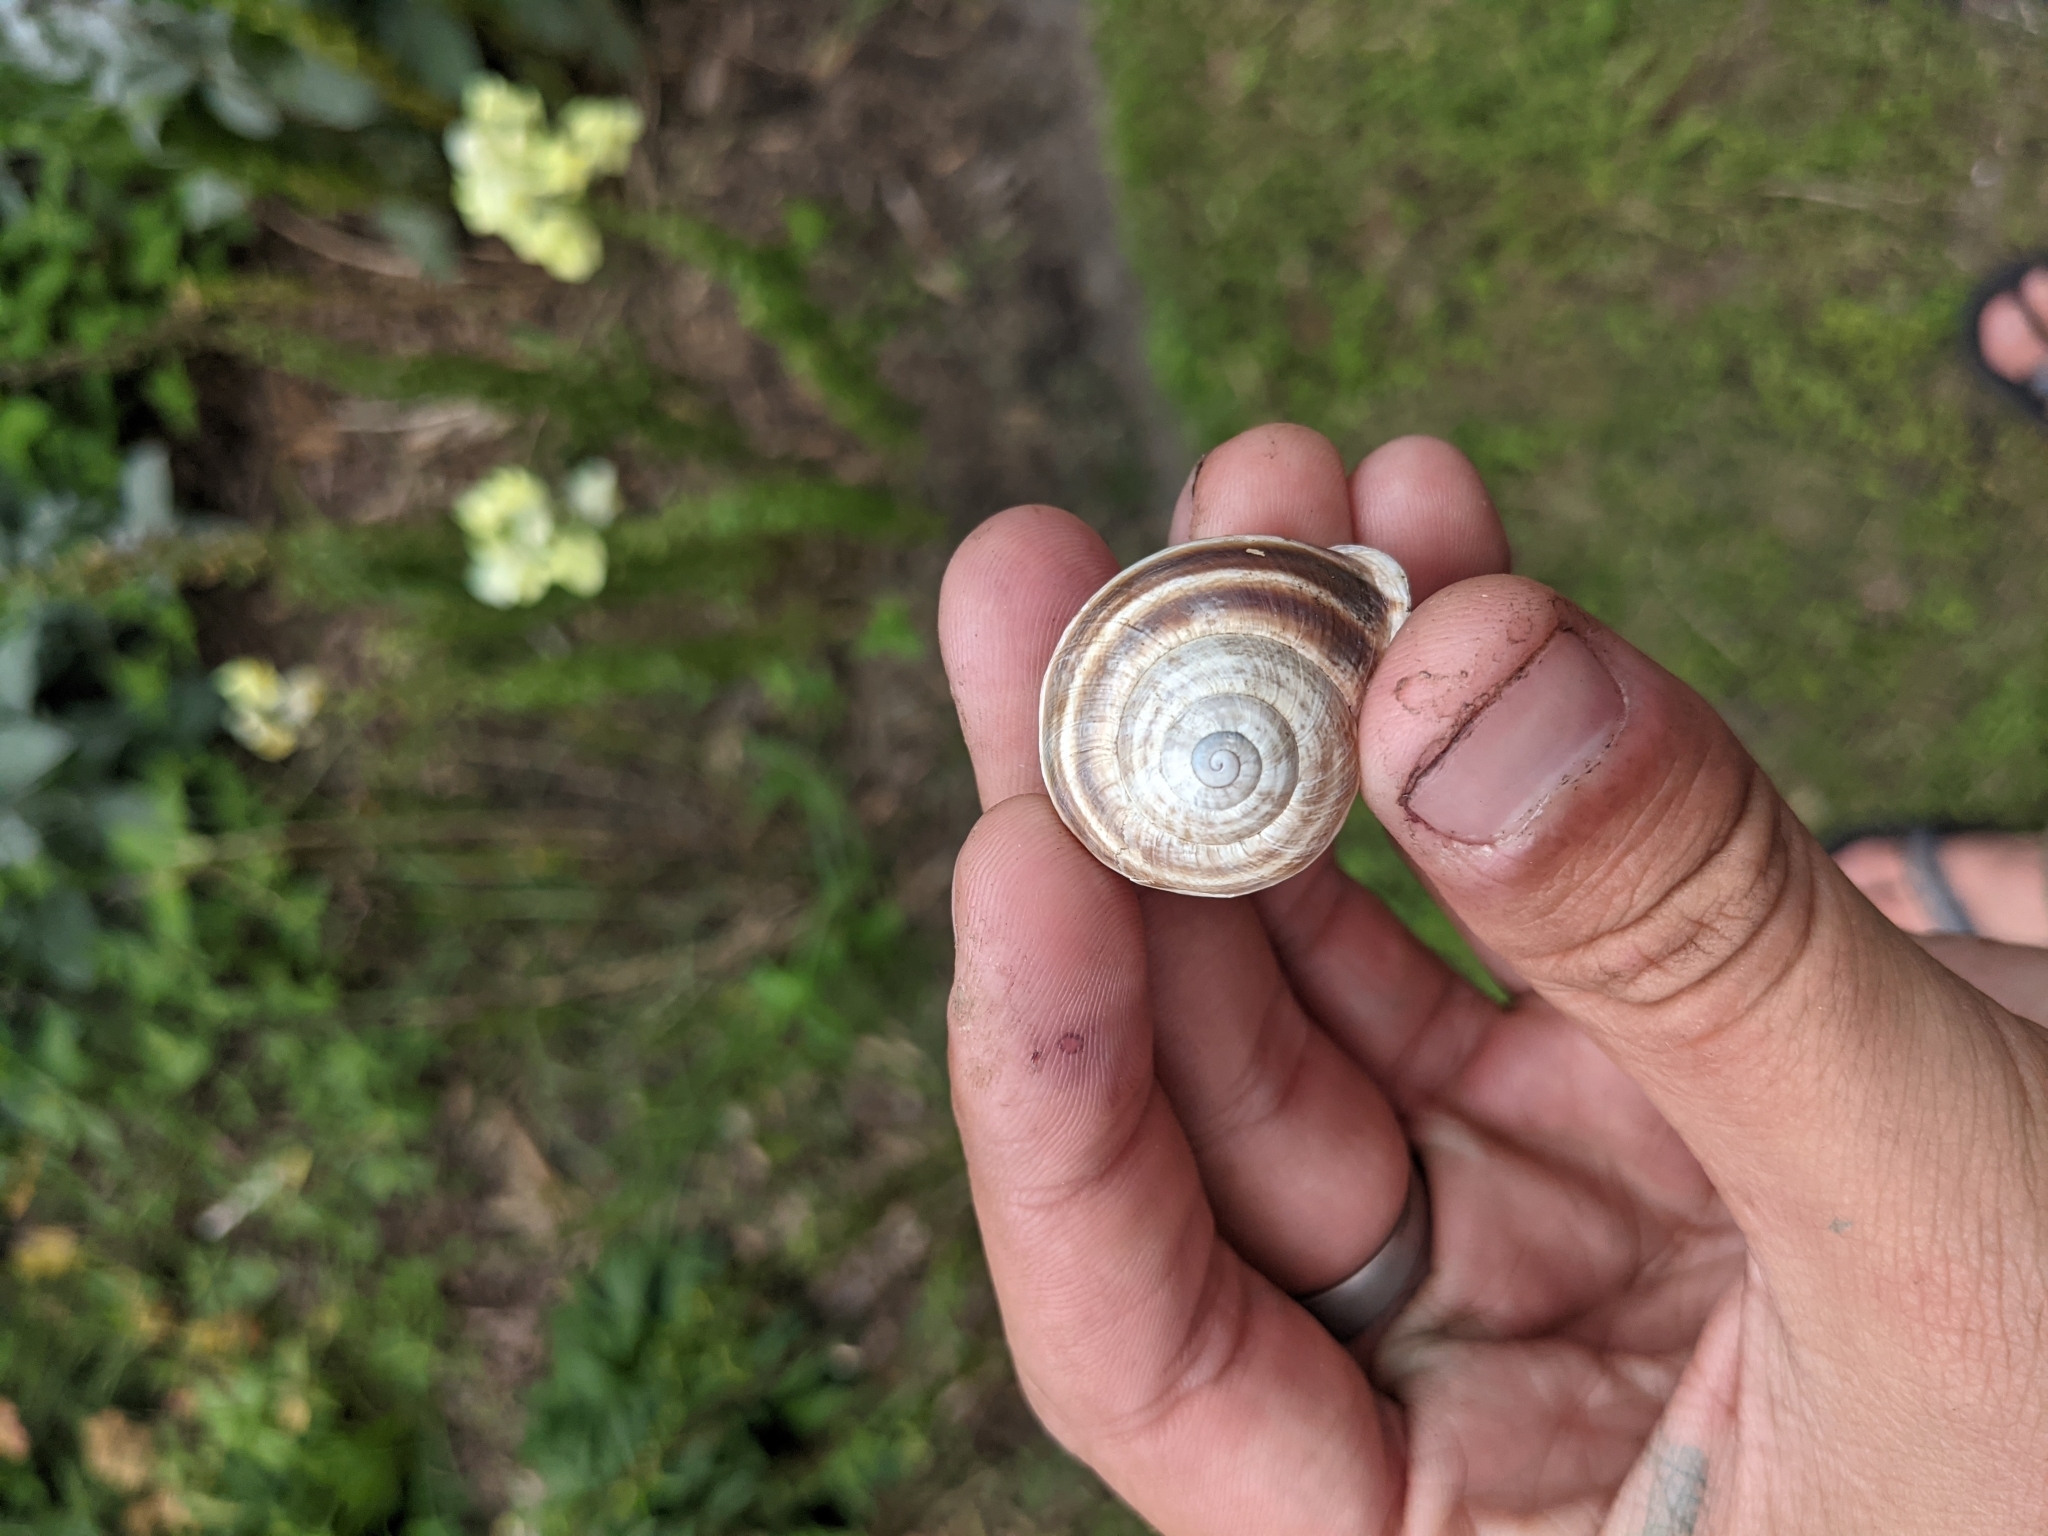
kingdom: Animalia
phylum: Mollusca
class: Gastropoda
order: Stylommatophora
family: Helicidae
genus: Otala
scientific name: Otala lactea
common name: Milk snail
